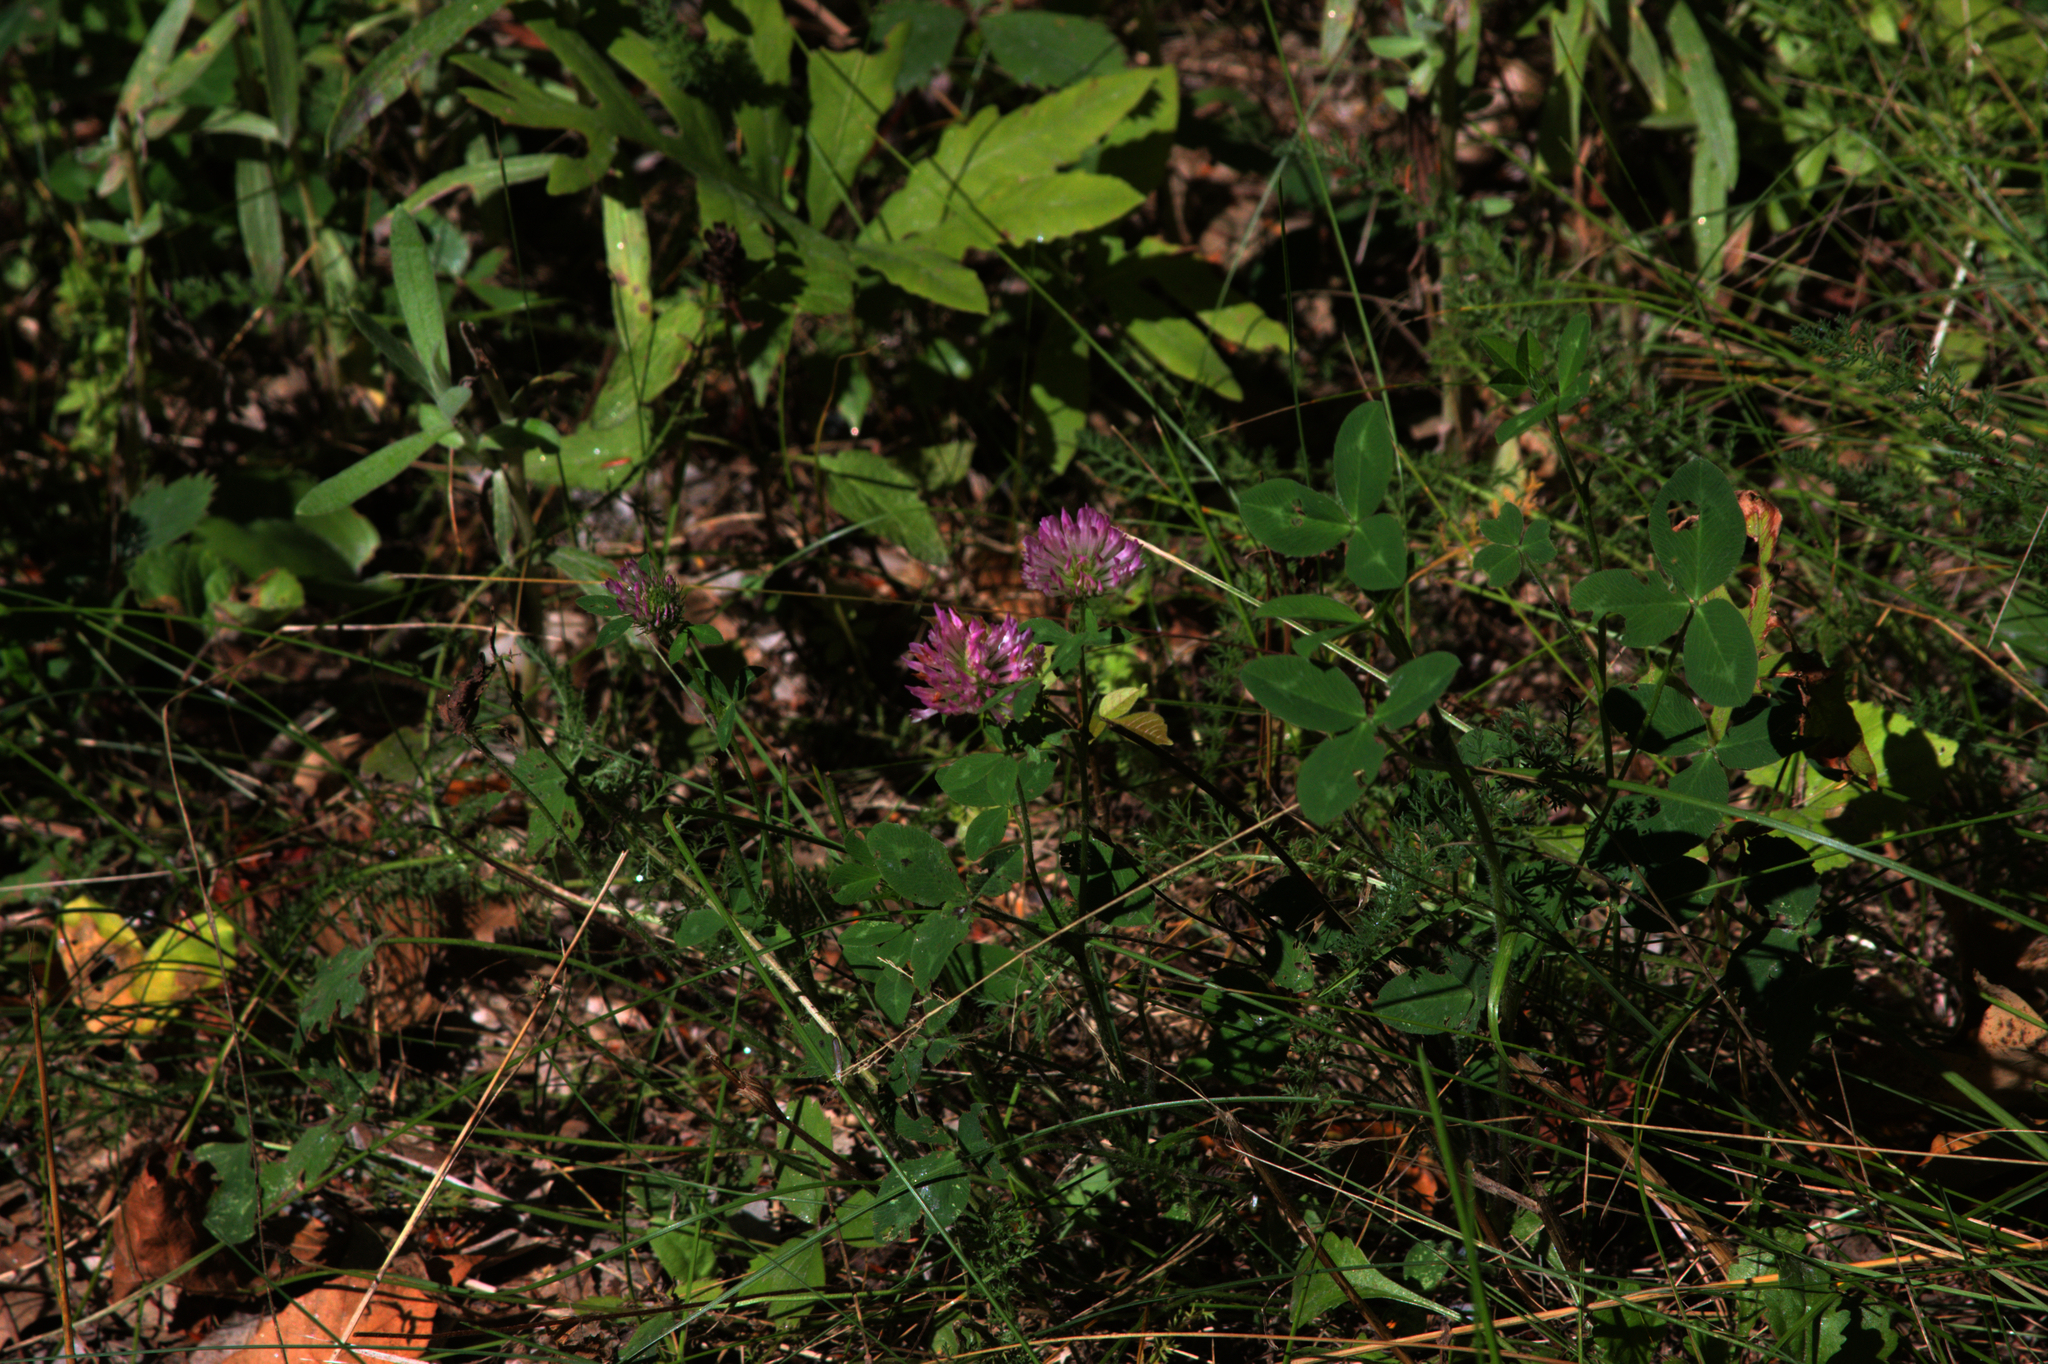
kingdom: Plantae
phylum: Tracheophyta
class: Magnoliopsida
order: Fabales
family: Fabaceae
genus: Trifolium
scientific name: Trifolium pratense
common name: Red clover
